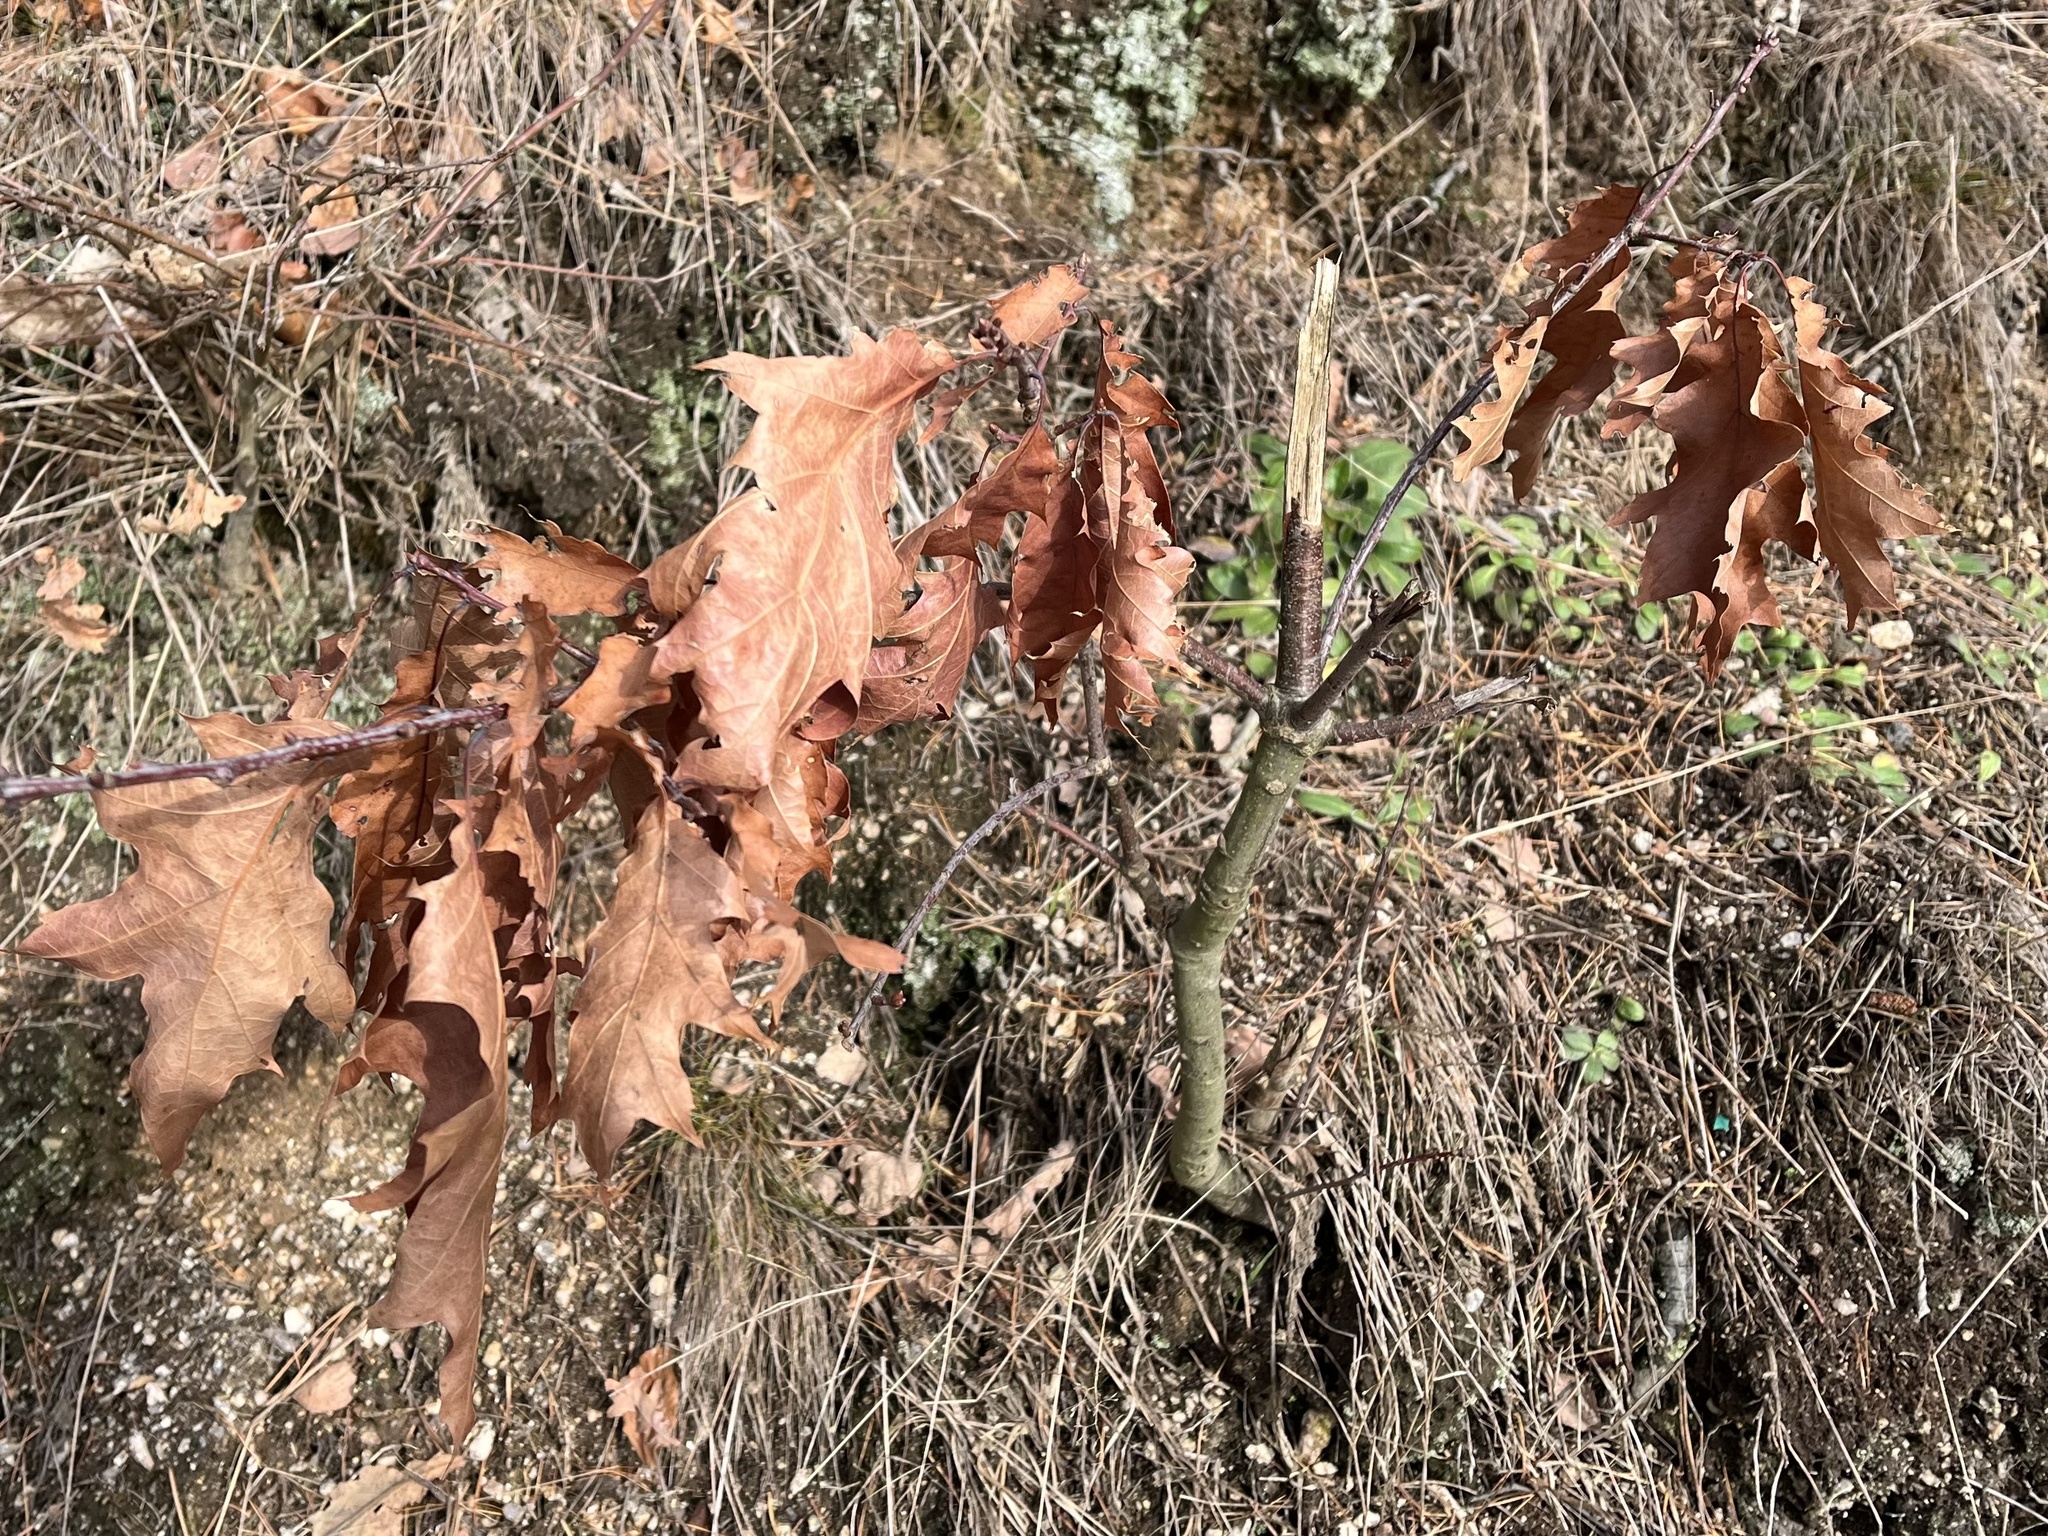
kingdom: Plantae
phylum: Tracheophyta
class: Magnoliopsida
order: Fagales
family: Fagaceae
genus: Quercus
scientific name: Quercus rubra
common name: Red oak
